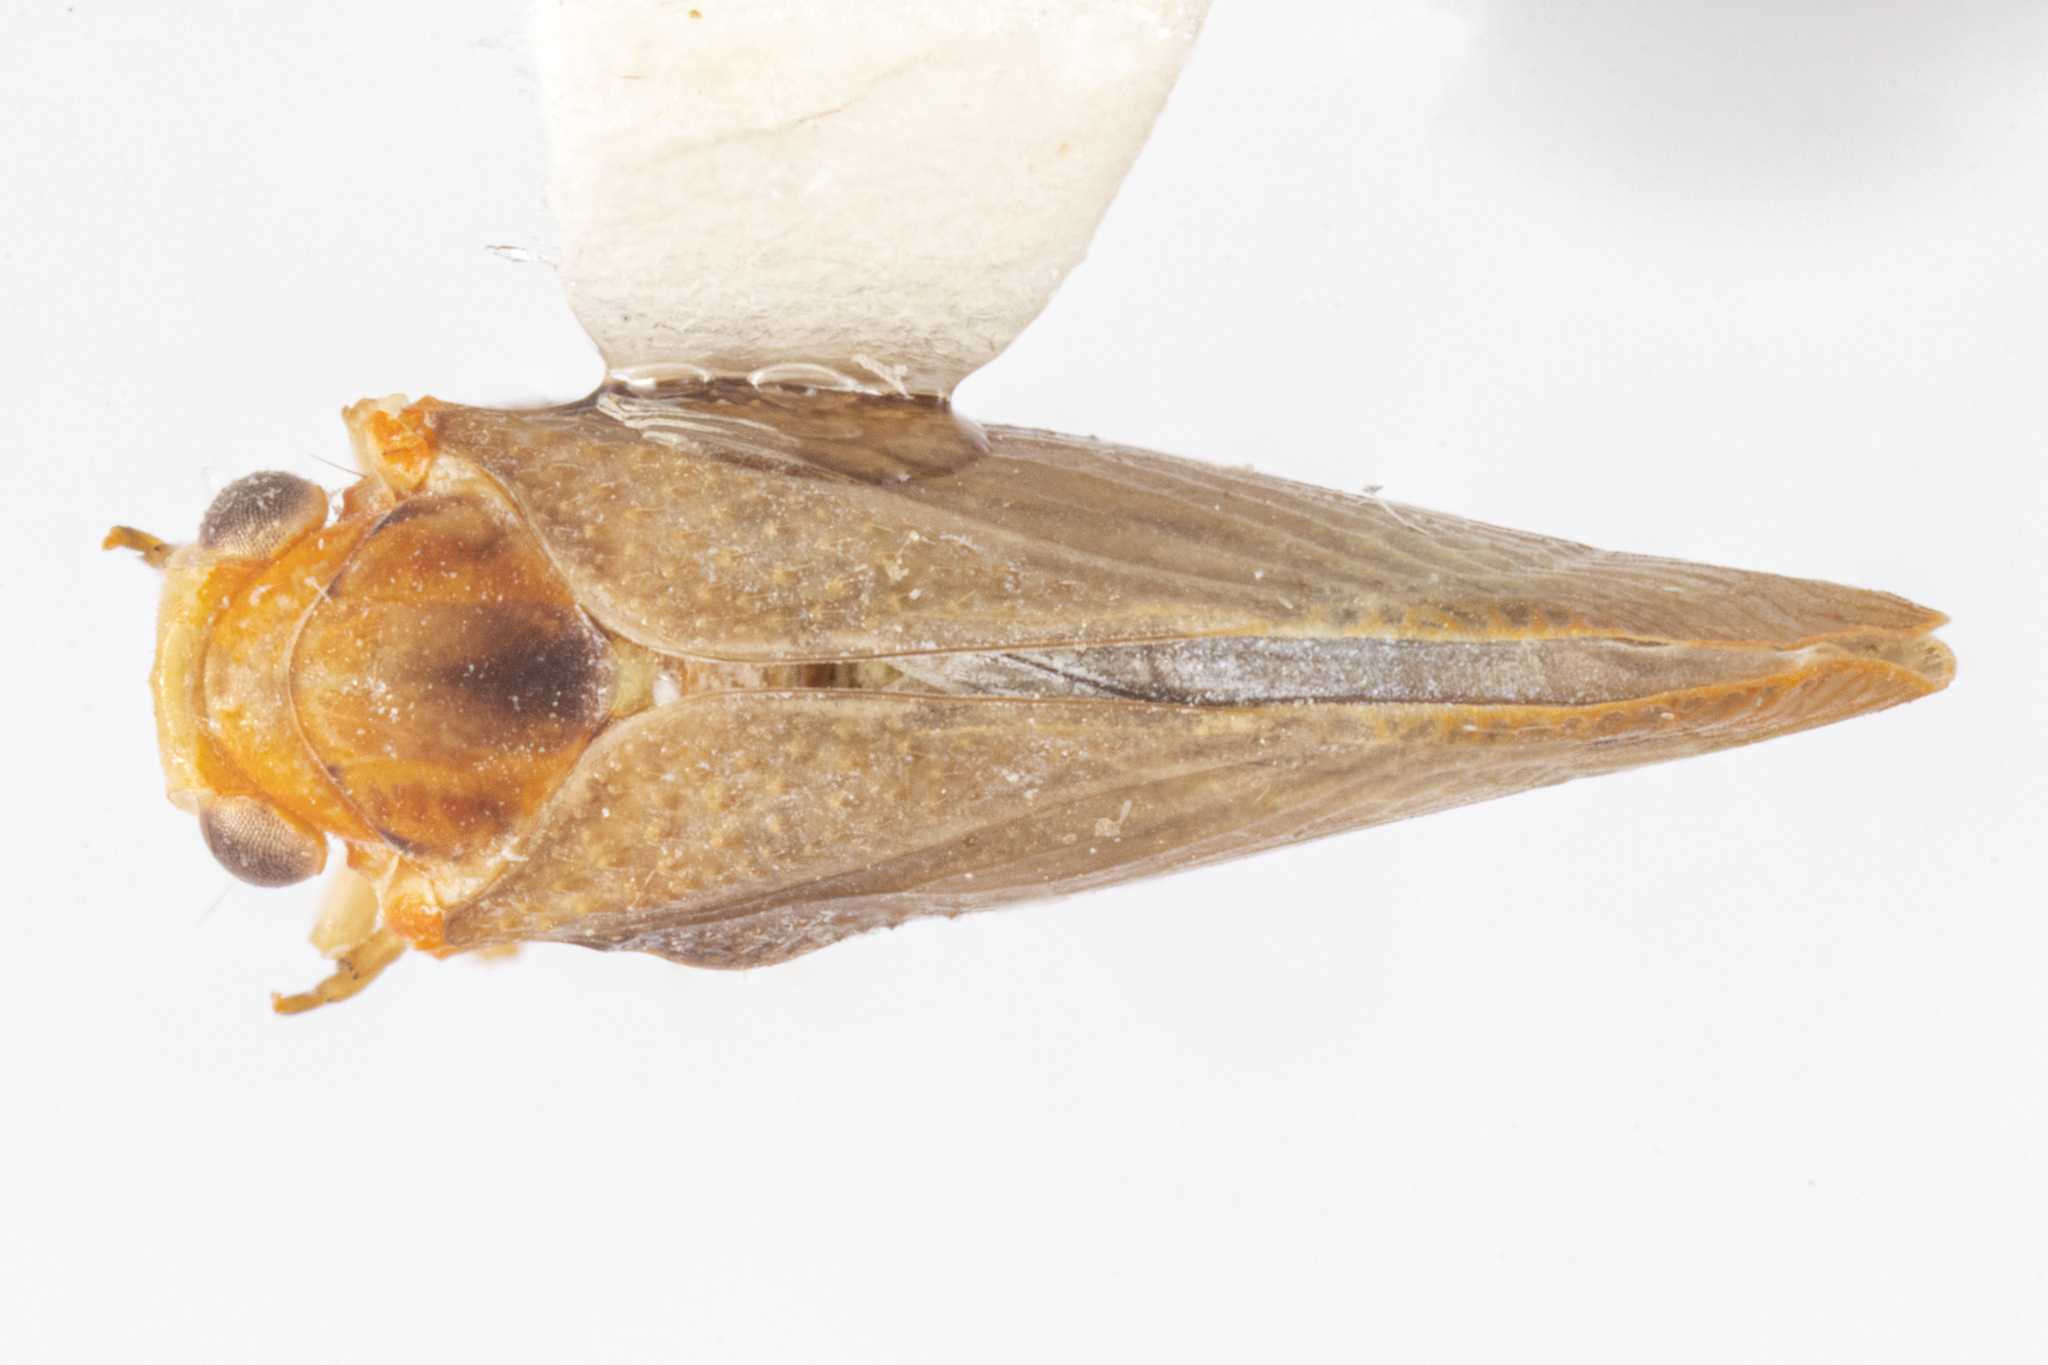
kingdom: Animalia
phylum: Arthropoda
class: Insecta
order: Hemiptera
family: Flatidae
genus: Petrusa
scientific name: Petrusa epilepsis
